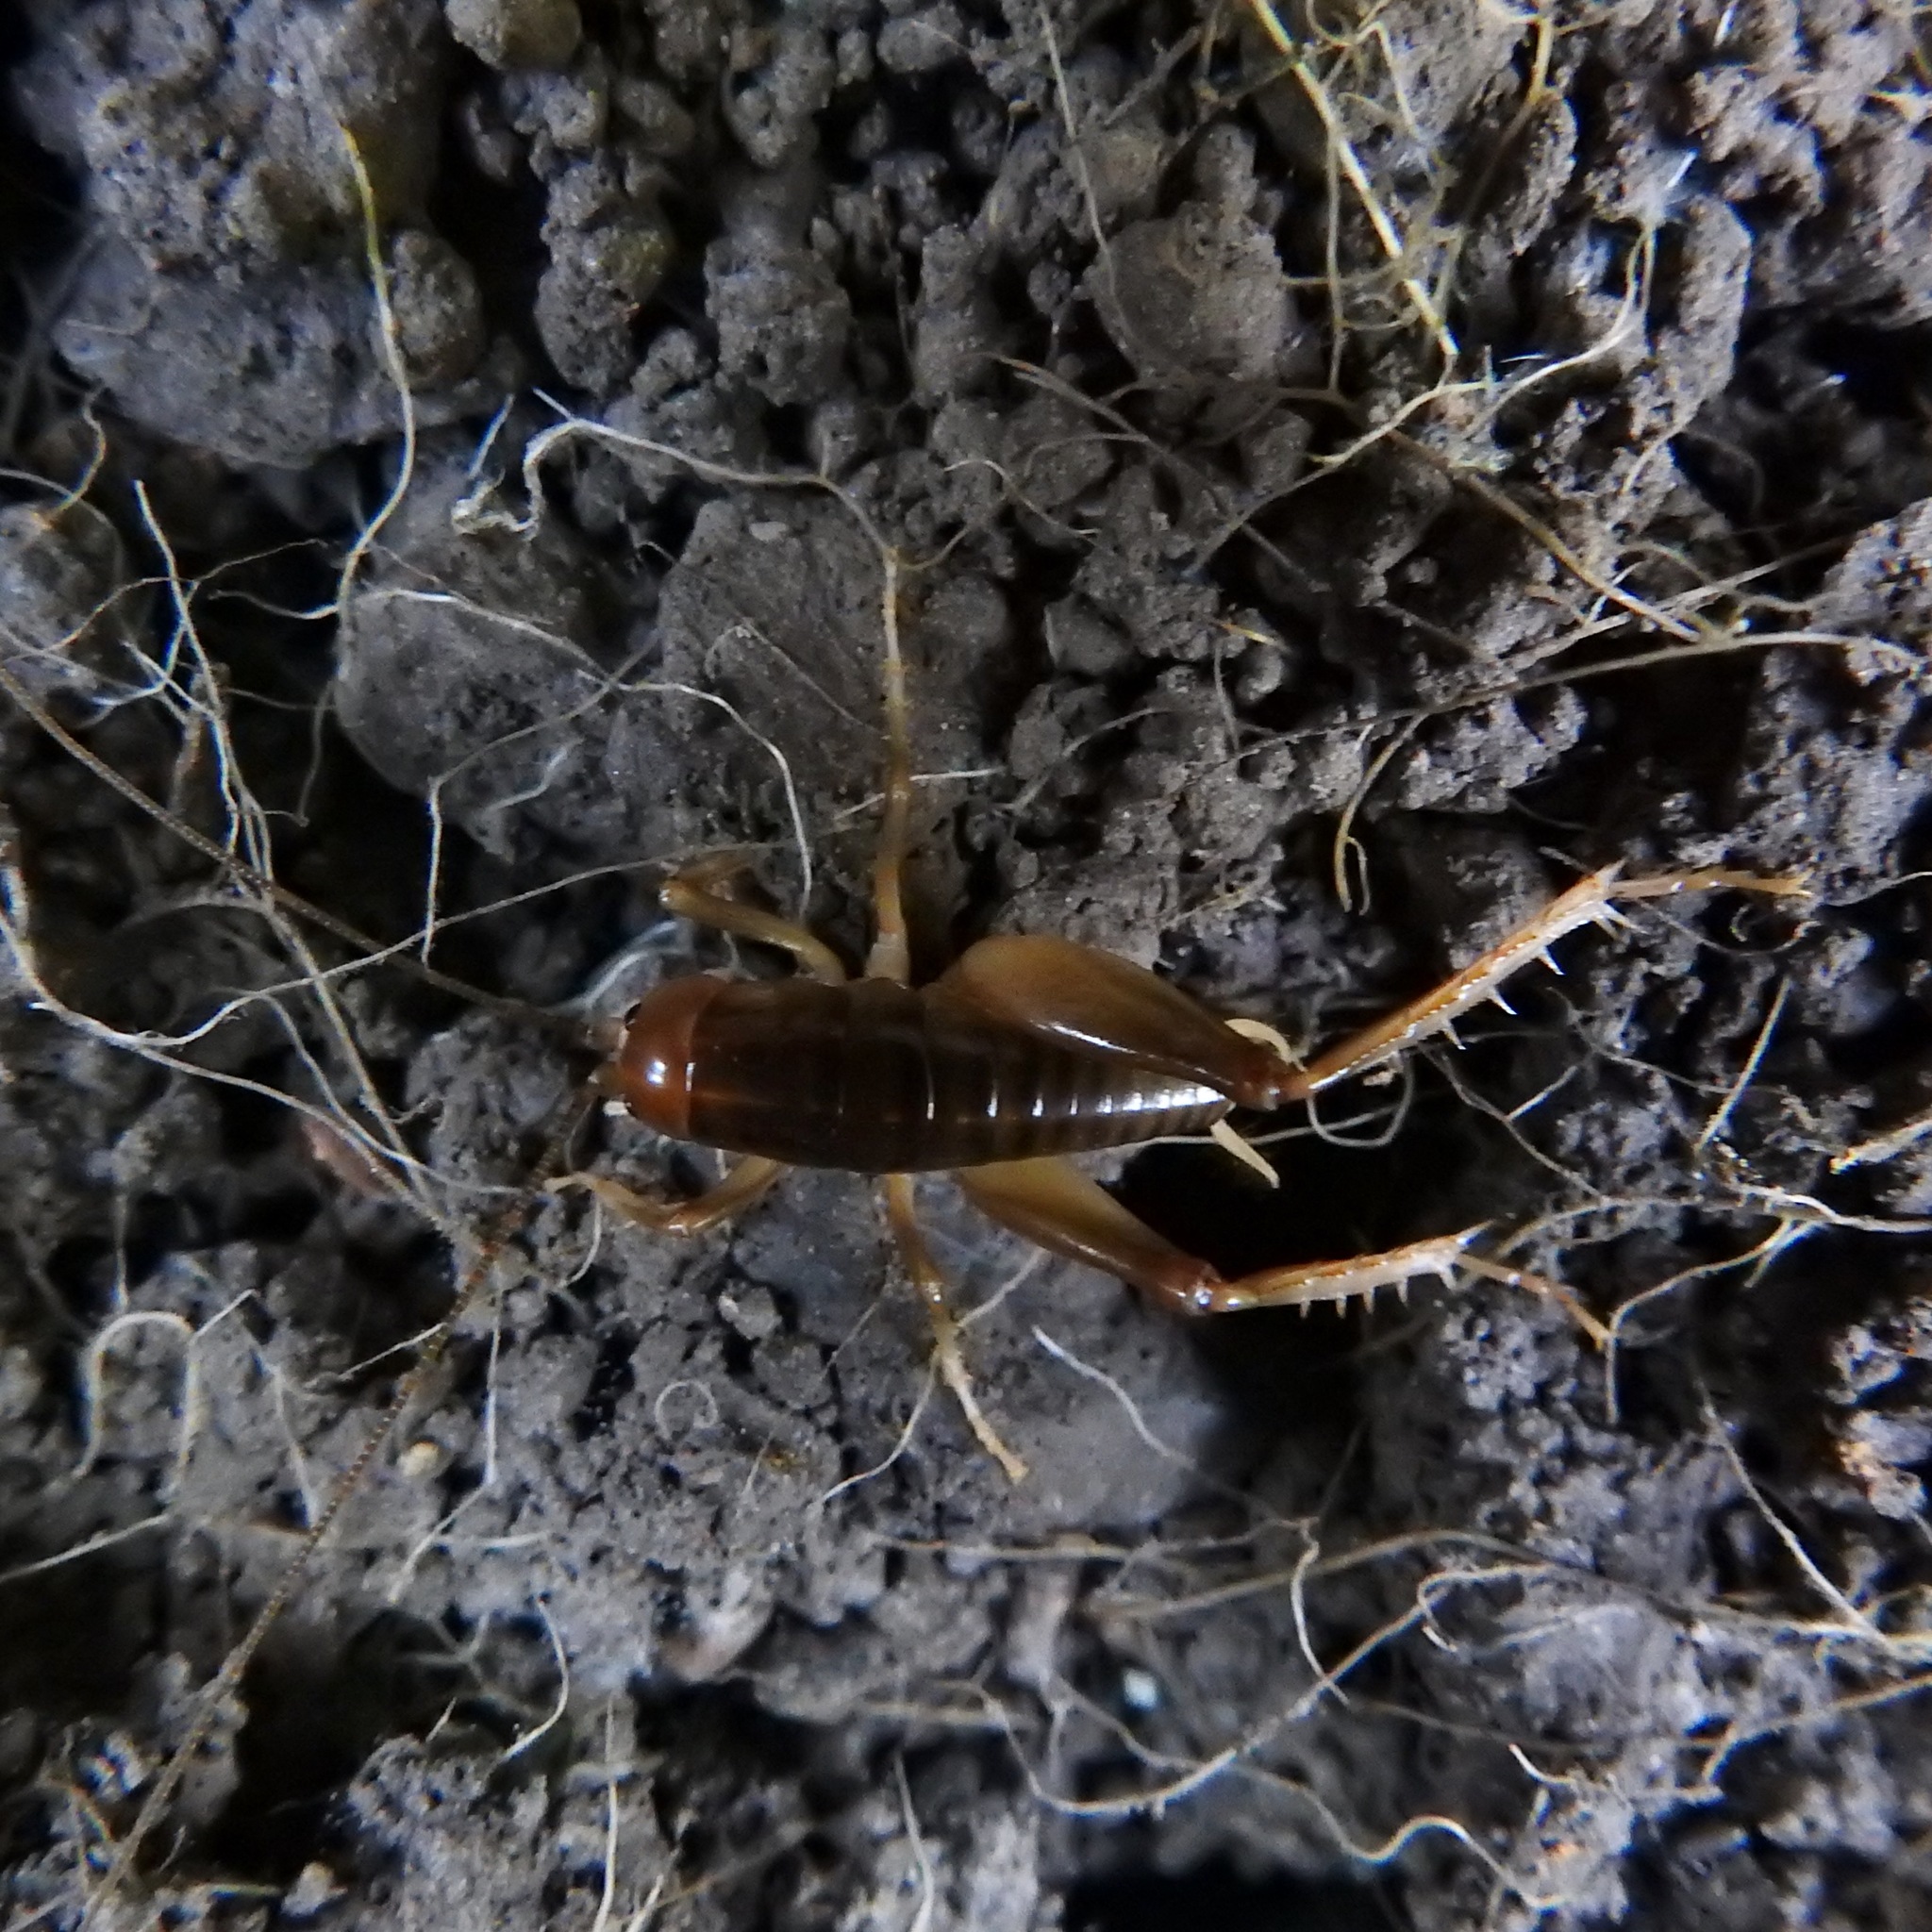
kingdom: Animalia
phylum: Arthropoda
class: Insecta
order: Orthoptera
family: Rhaphidophoridae
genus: Ceuthophilus
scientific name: Ceuthophilus californianus
